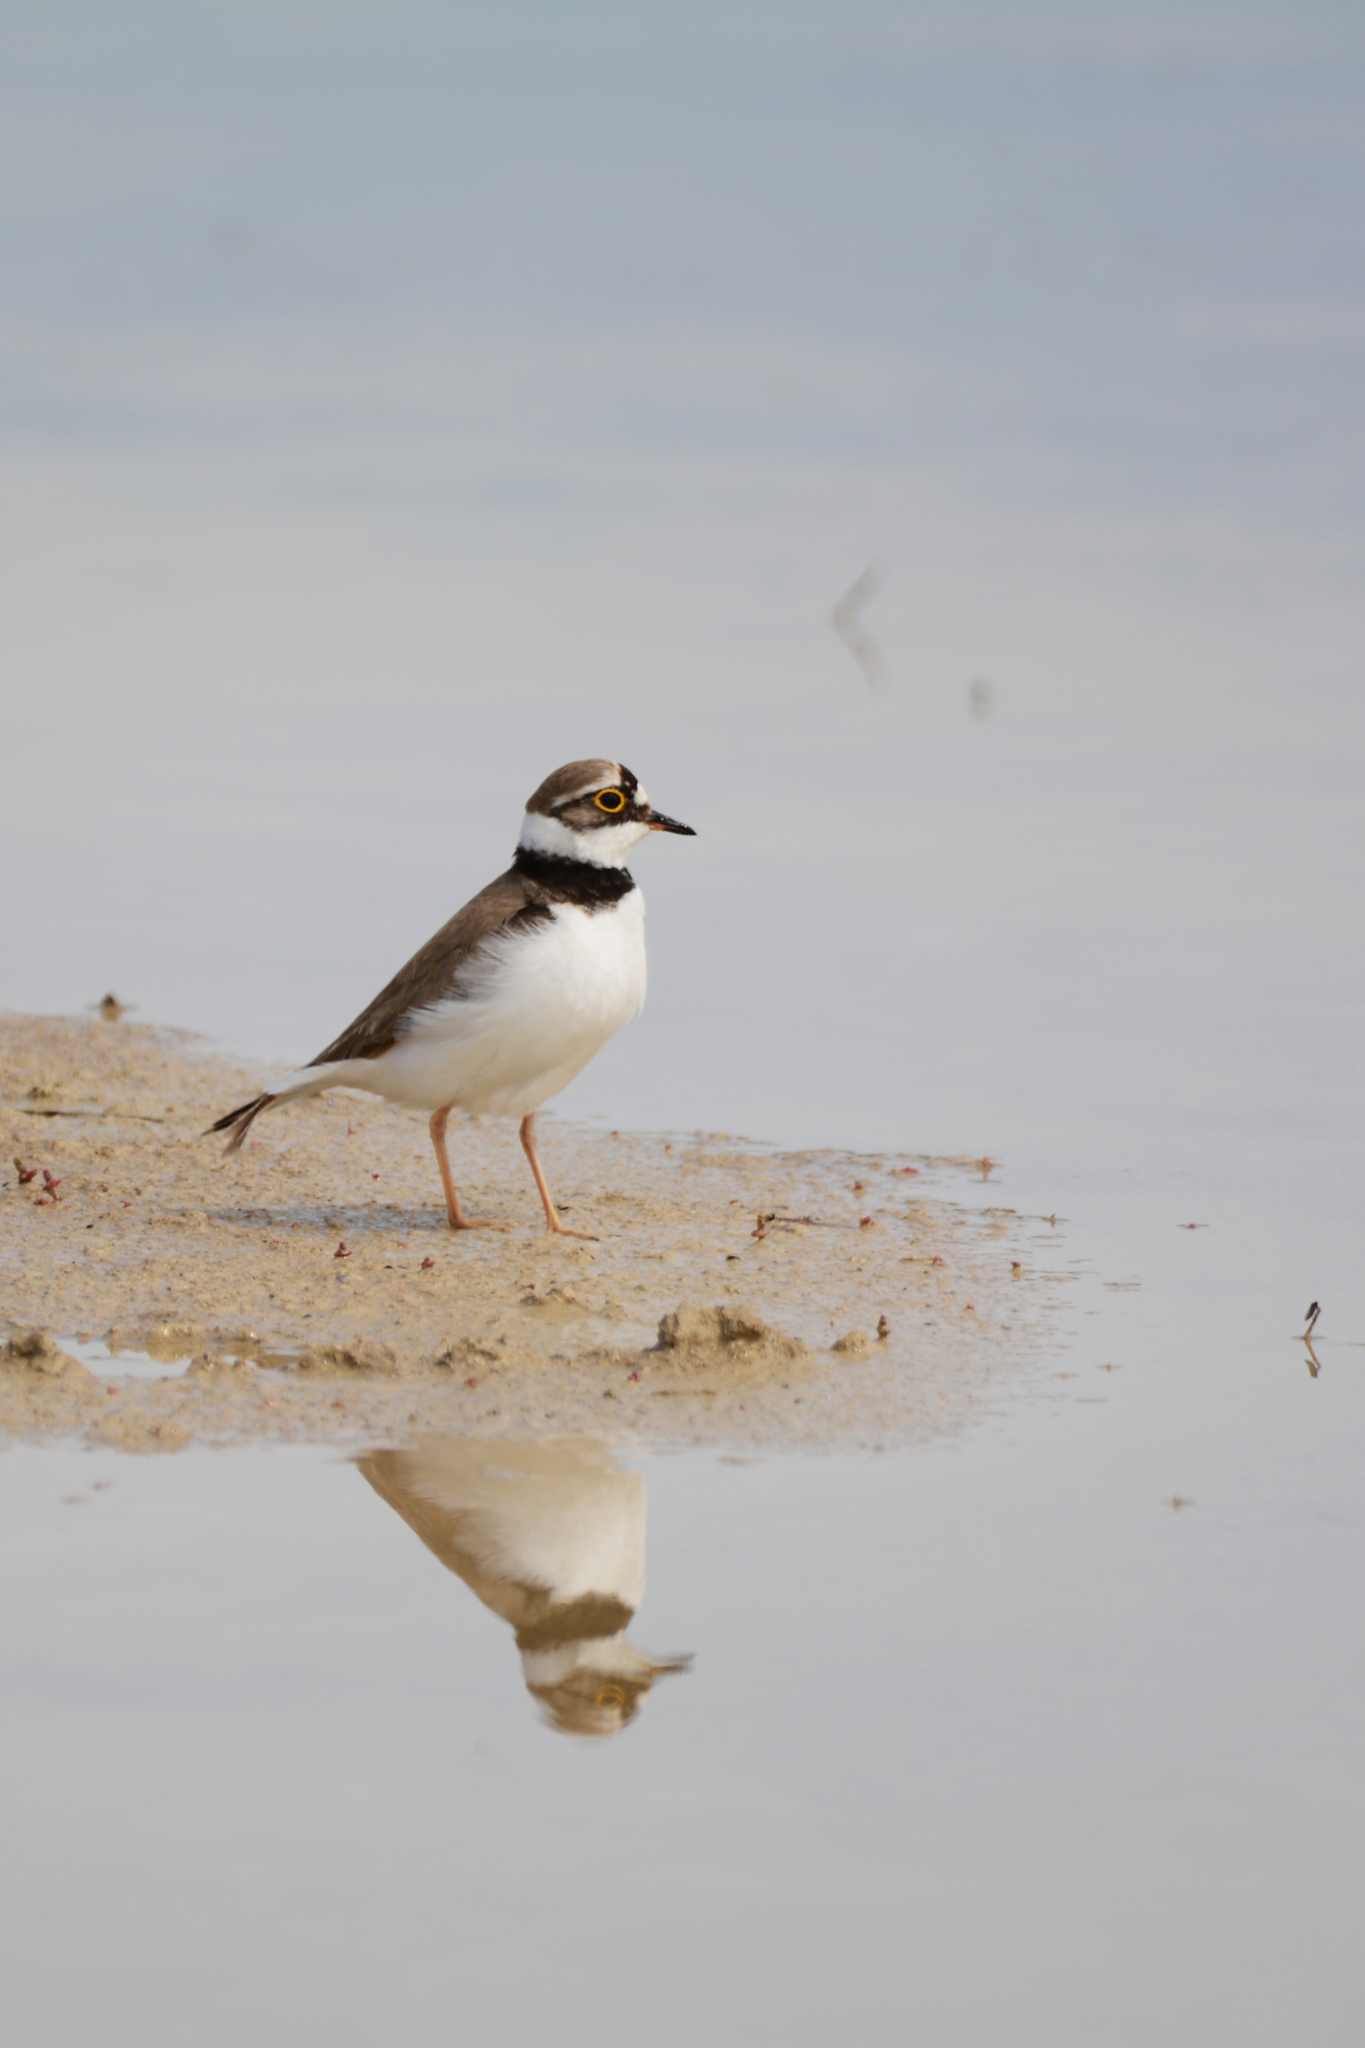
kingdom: Animalia
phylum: Chordata
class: Aves
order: Charadriiformes
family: Charadriidae
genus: Charadrius
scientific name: Charadrius dubius
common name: Little ringed plover
